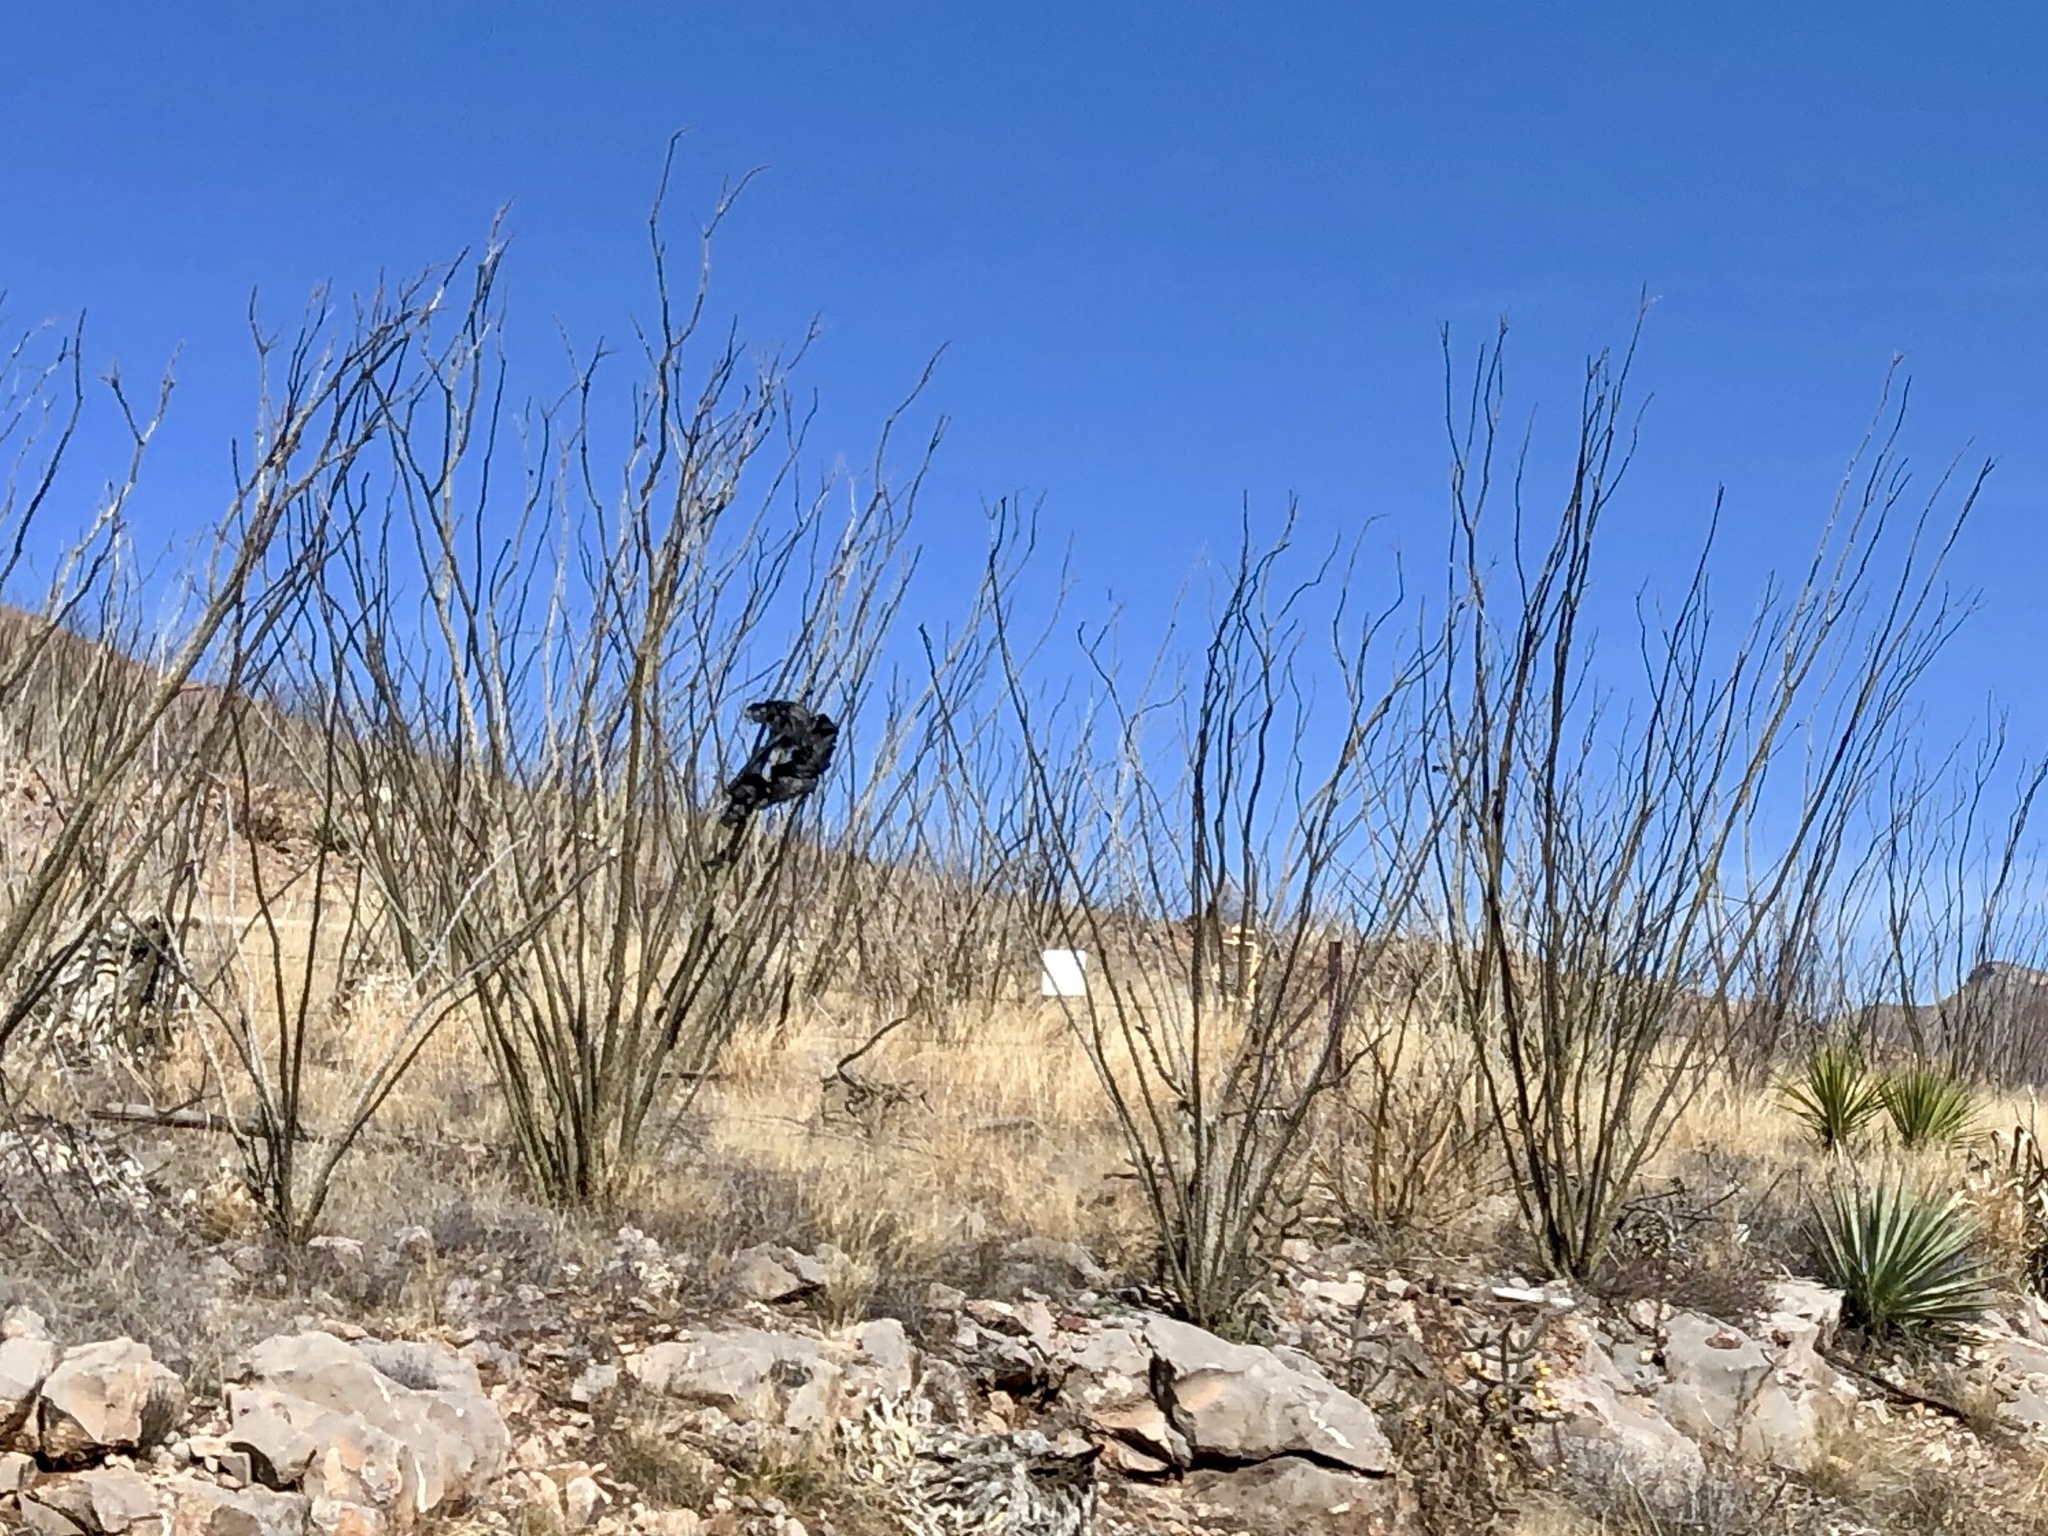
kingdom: Plantae
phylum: Tracheophyta
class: Magnoliopsida
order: Ericales
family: Fouquieriaceae
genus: Fouquieria
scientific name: Fouquieria splendens
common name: Vine-cactus
